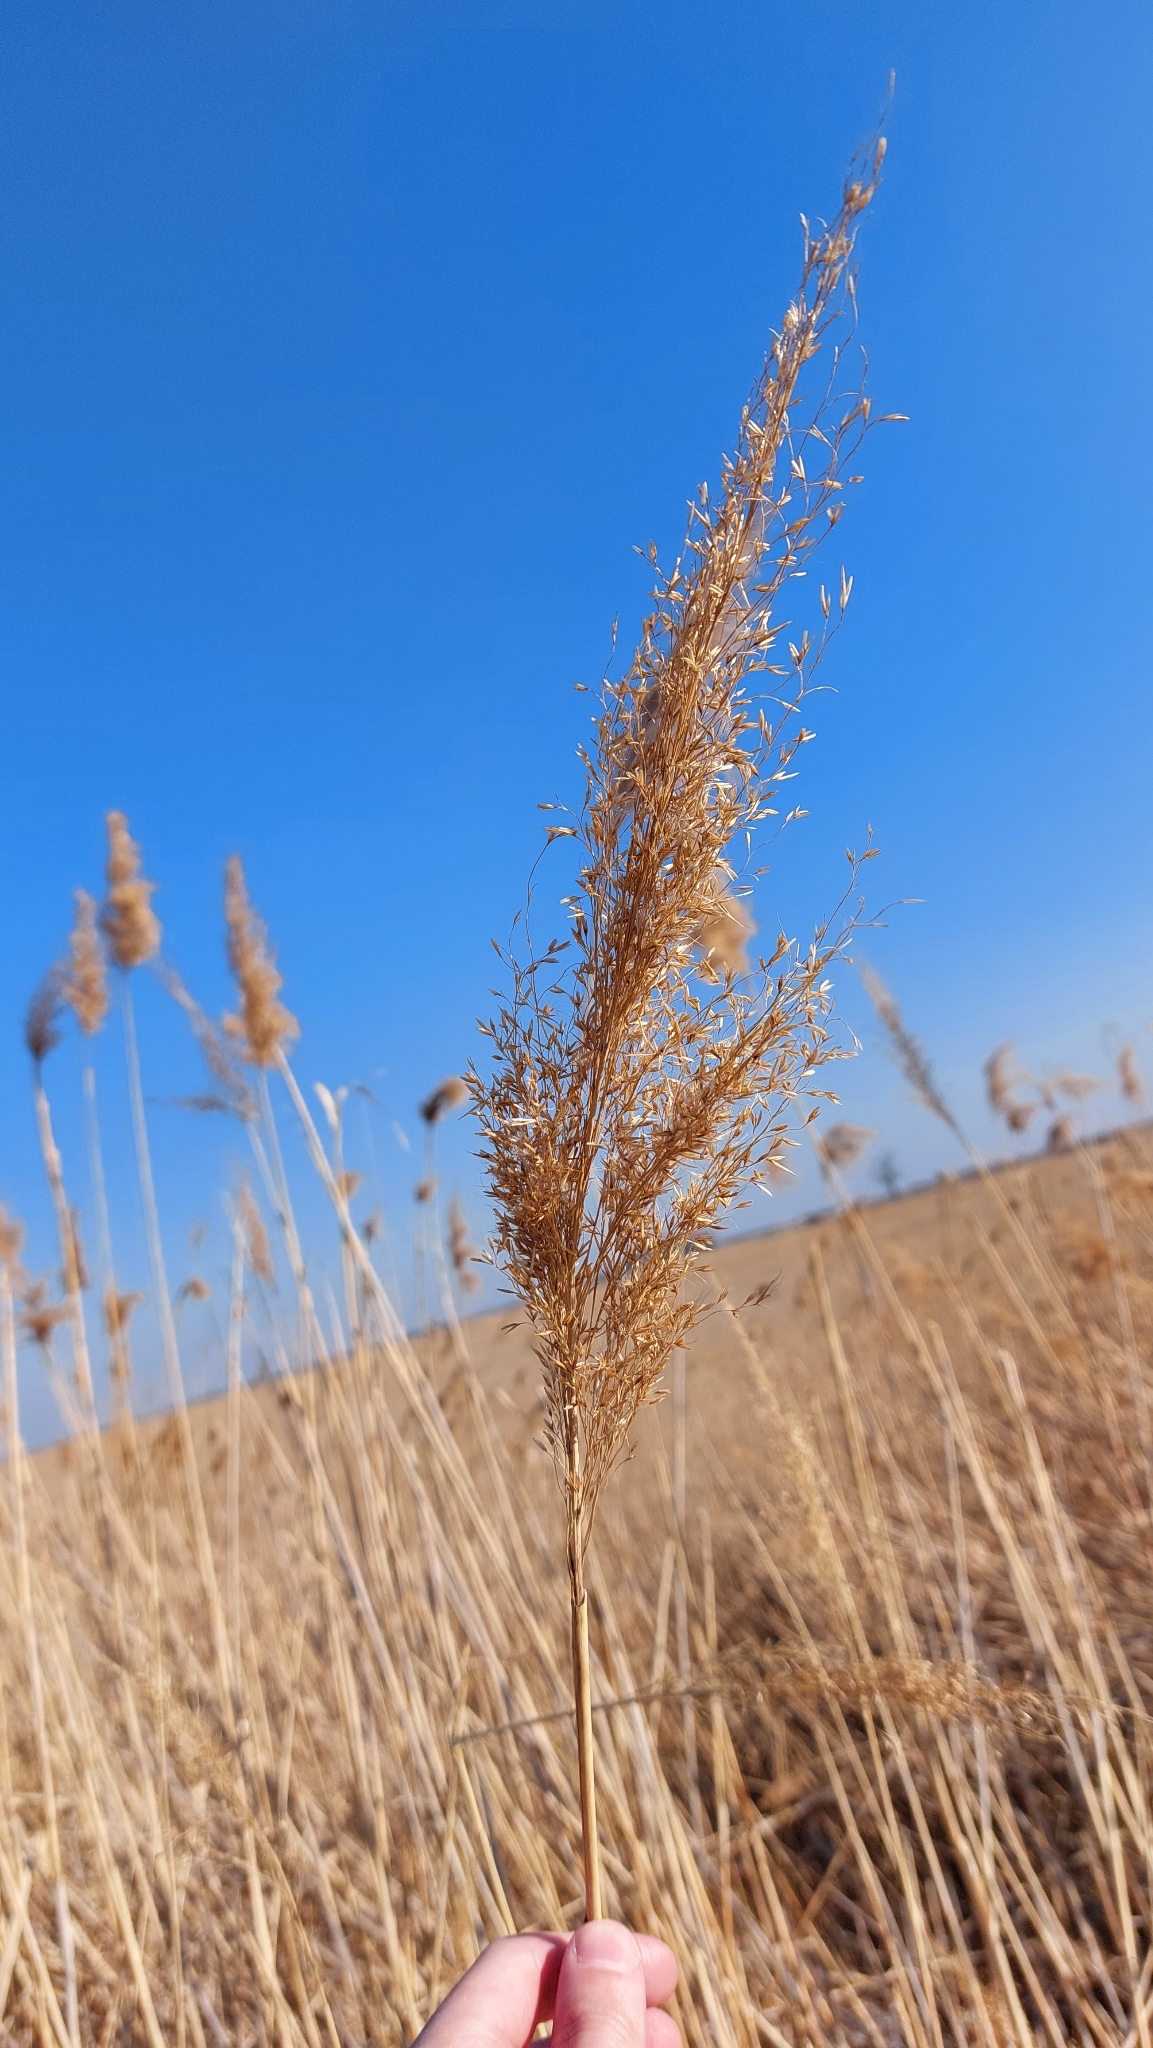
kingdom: Plantae
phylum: Tracheophyta
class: Liliopsida
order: Poales
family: Poaceae
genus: Phragmites
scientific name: Phragmites australis
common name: Common reed
